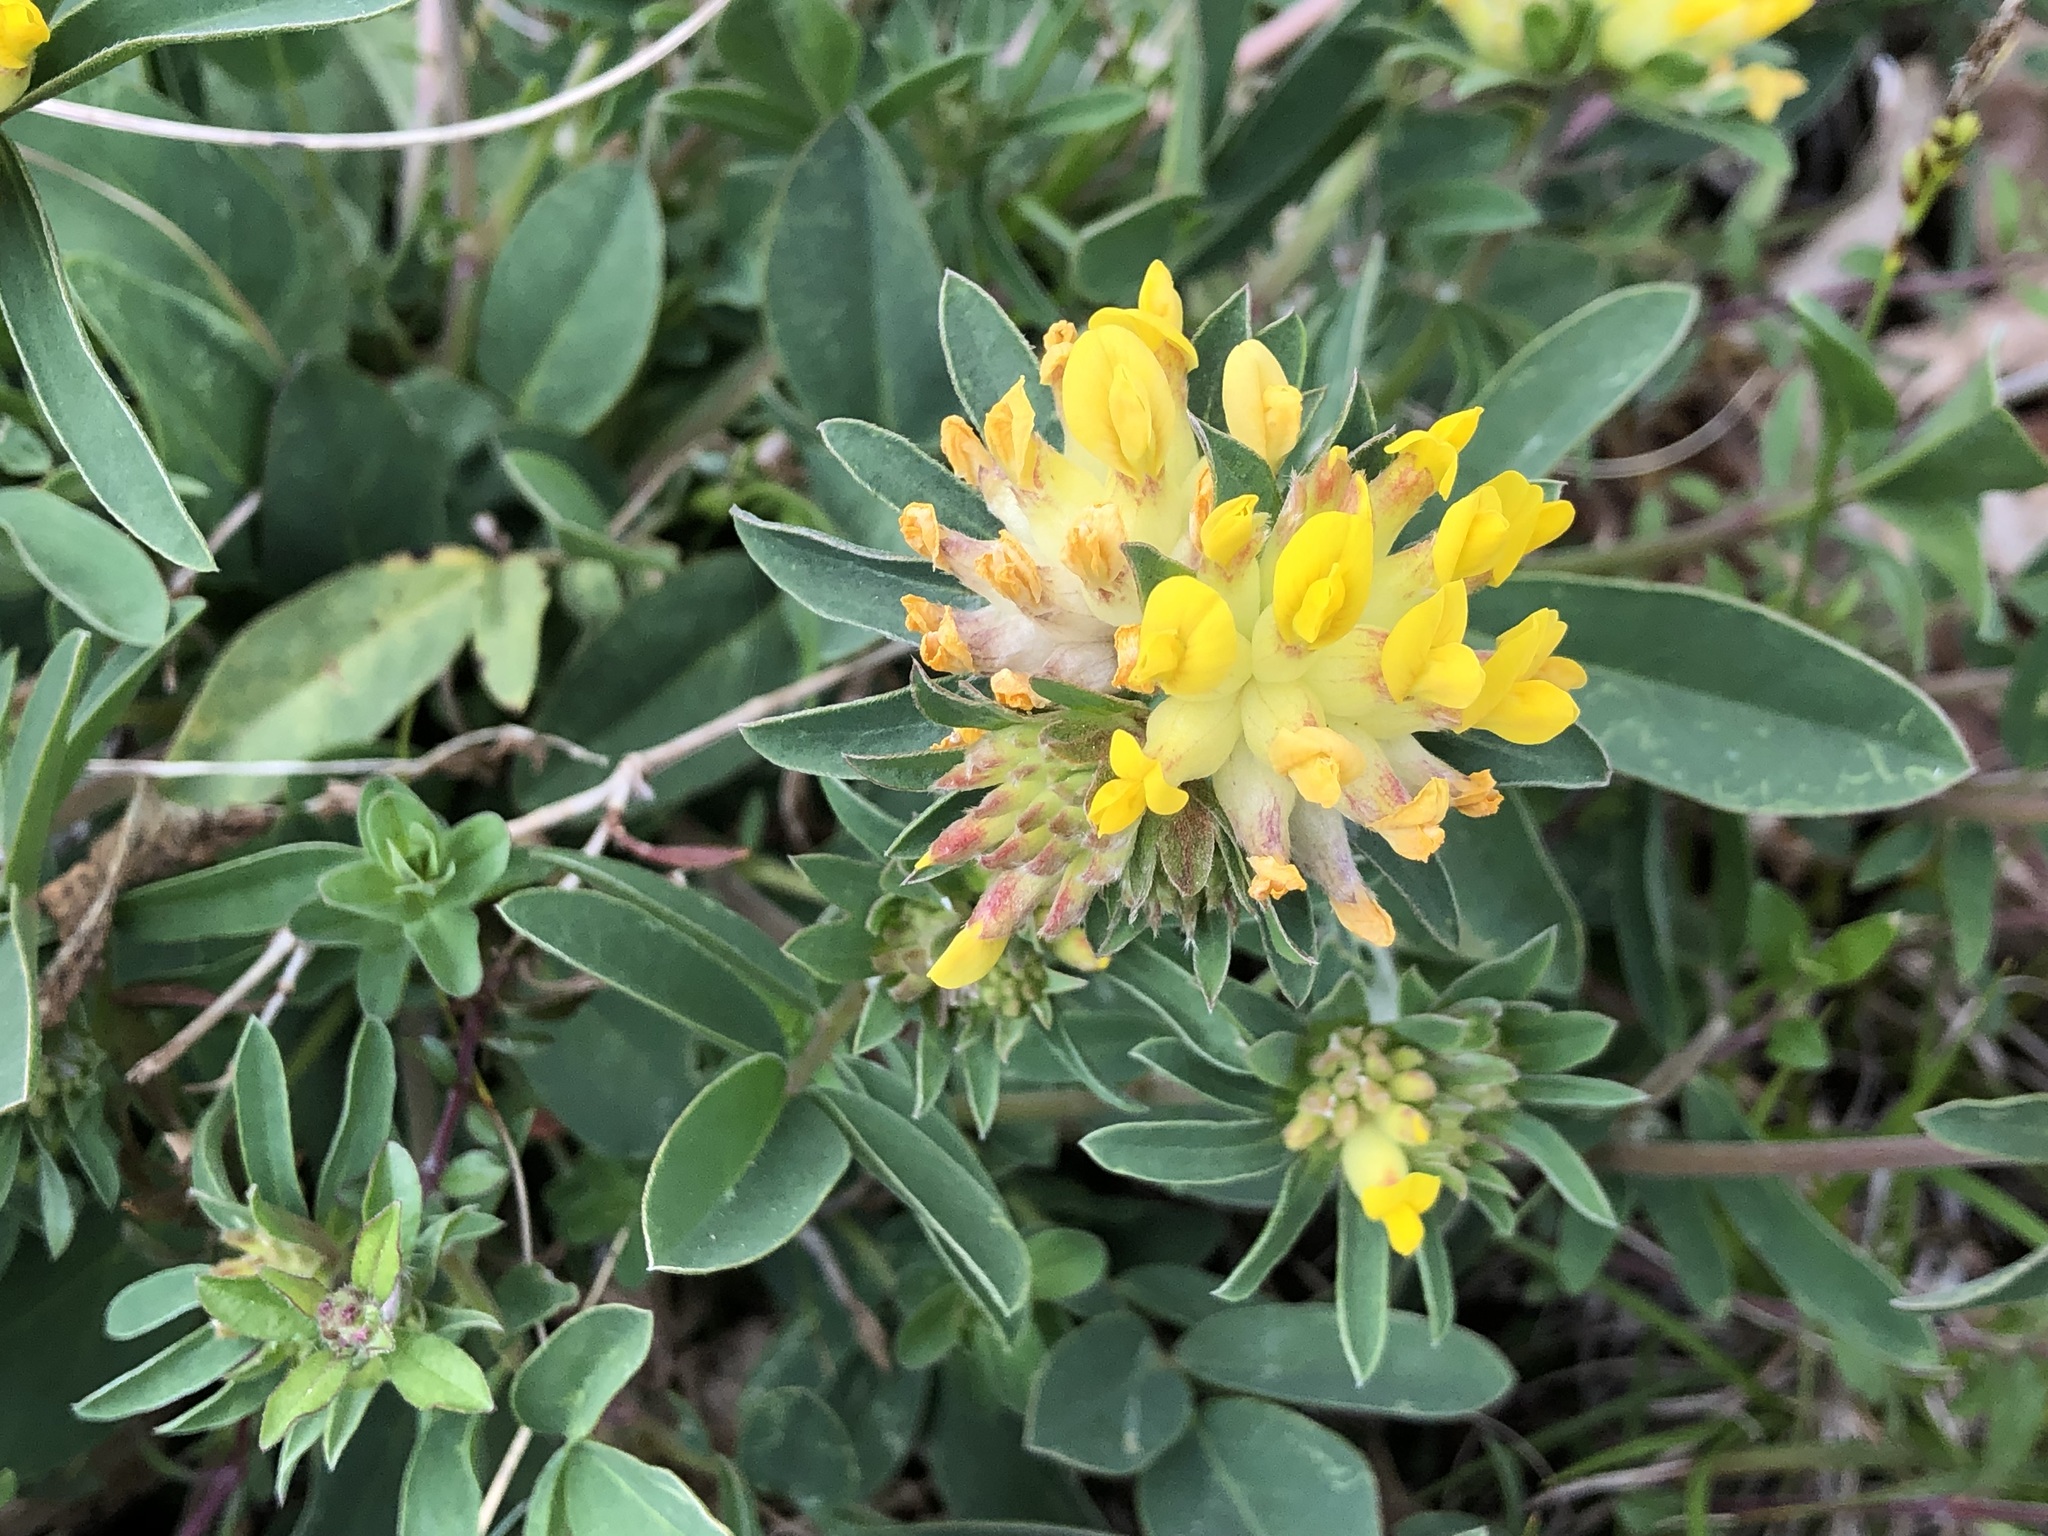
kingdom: Plantae
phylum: Tracheophyta
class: Magnoliopsida
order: Fabales
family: Fabaceae
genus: Anthyllis
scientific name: Anthyllis vulneraria
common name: Kidney vetch
